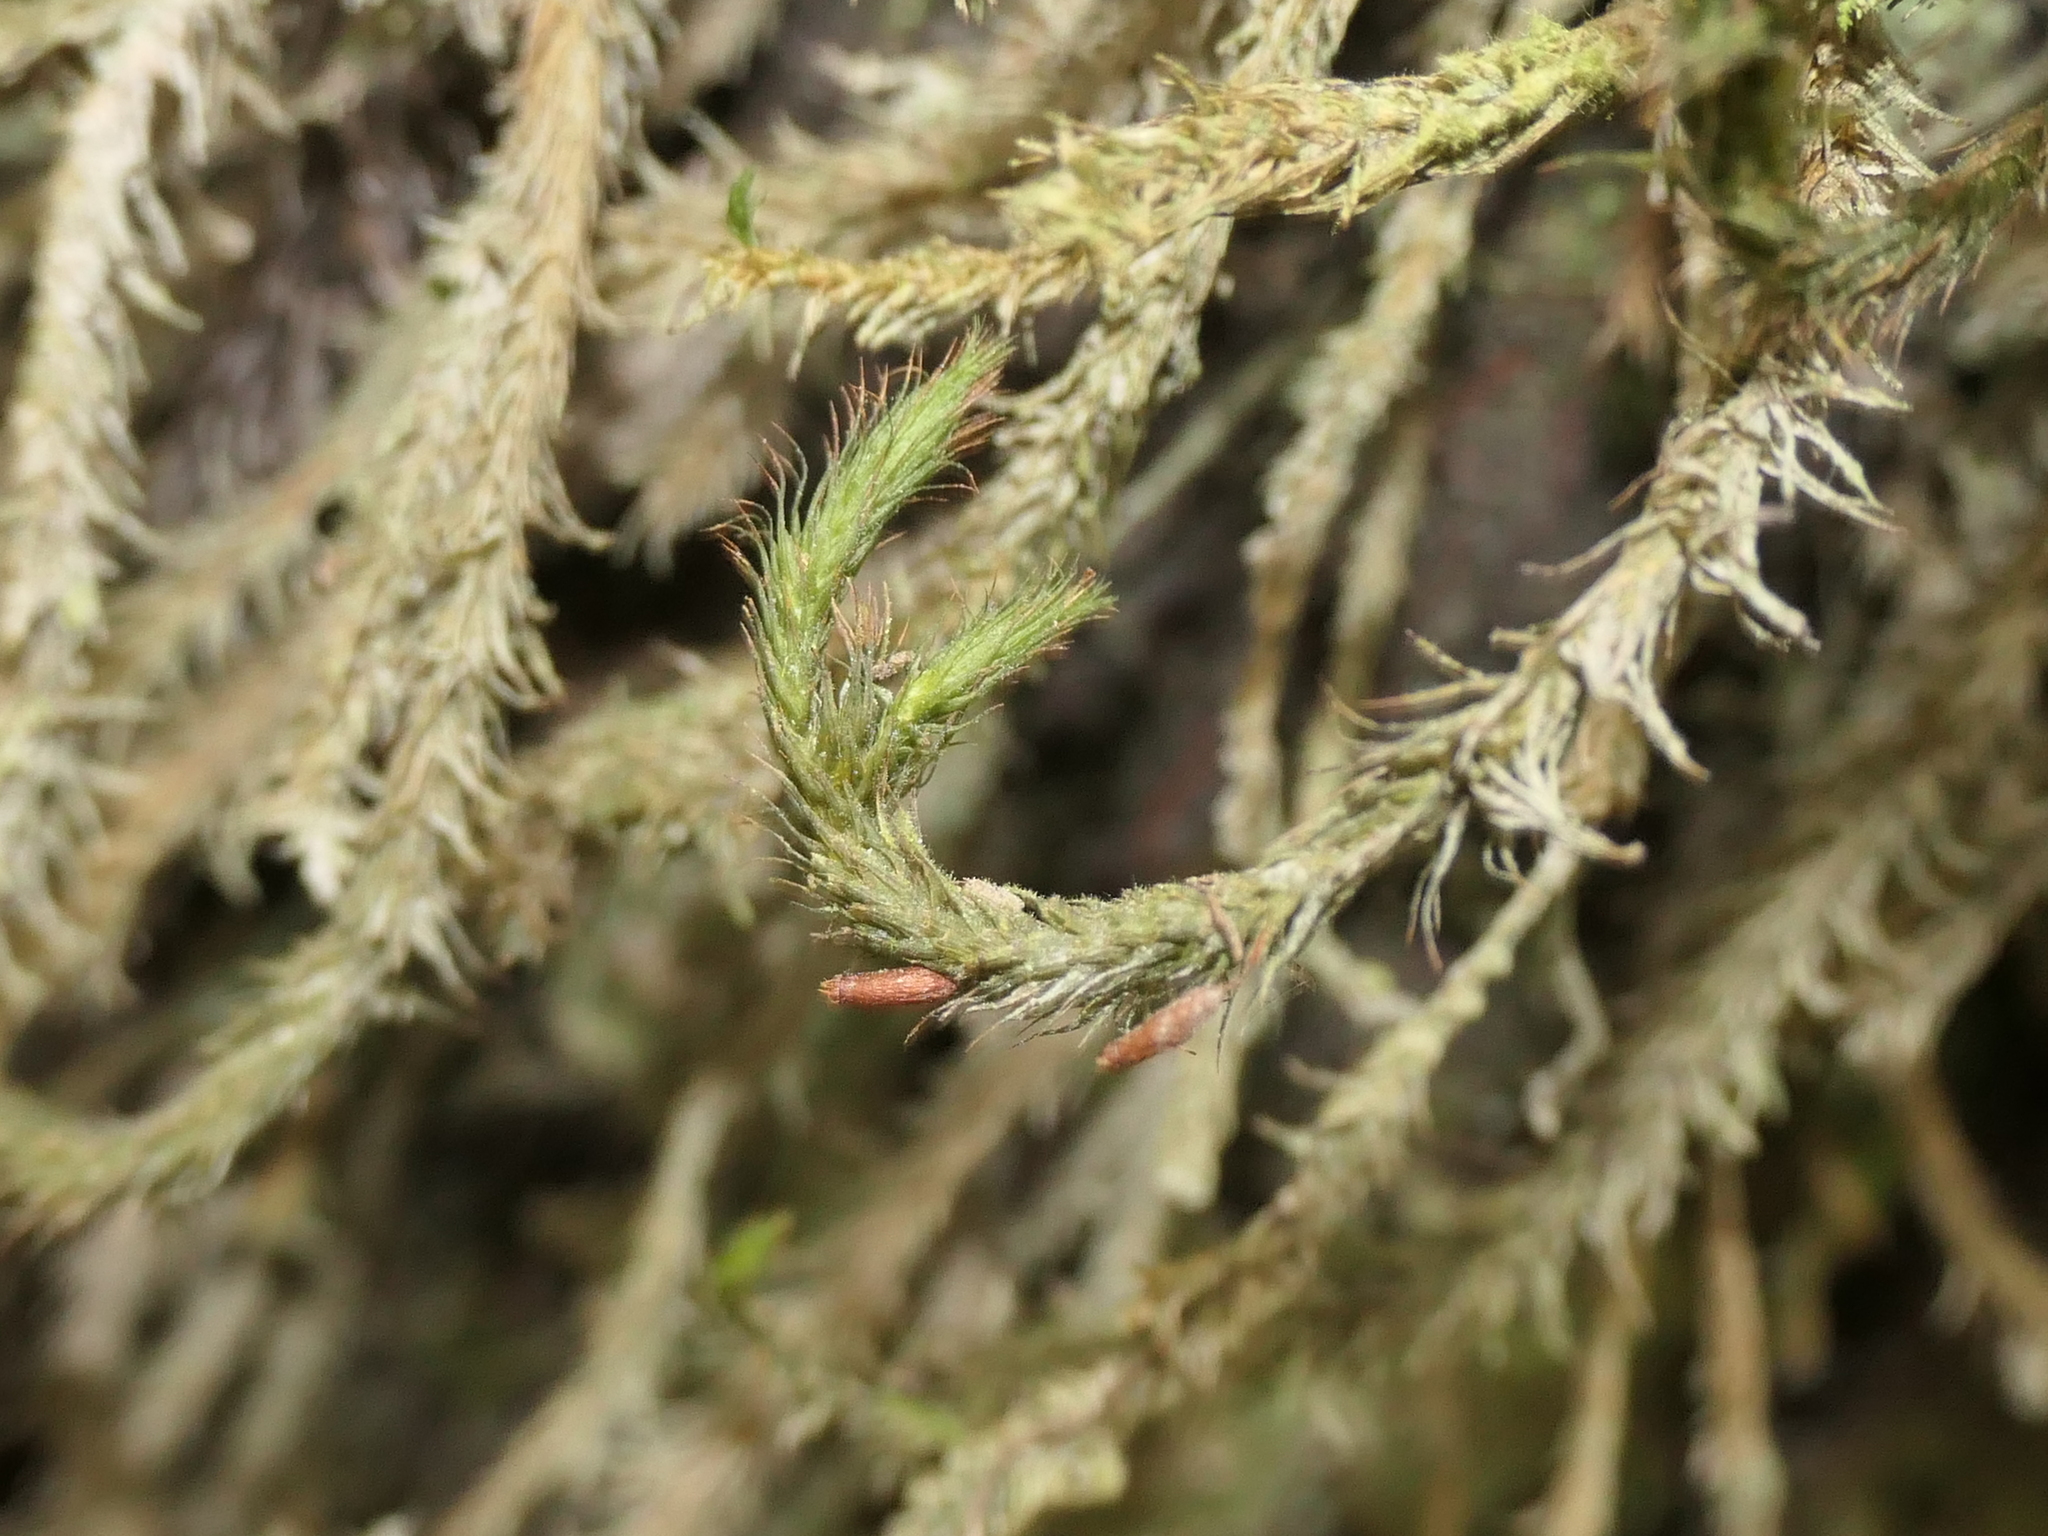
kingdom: Plantae
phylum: Bryophyta
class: Bryopsida
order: Hypnodendrales
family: Spiridentaceae
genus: Cyrtopus
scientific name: Cyrtopus setosus
